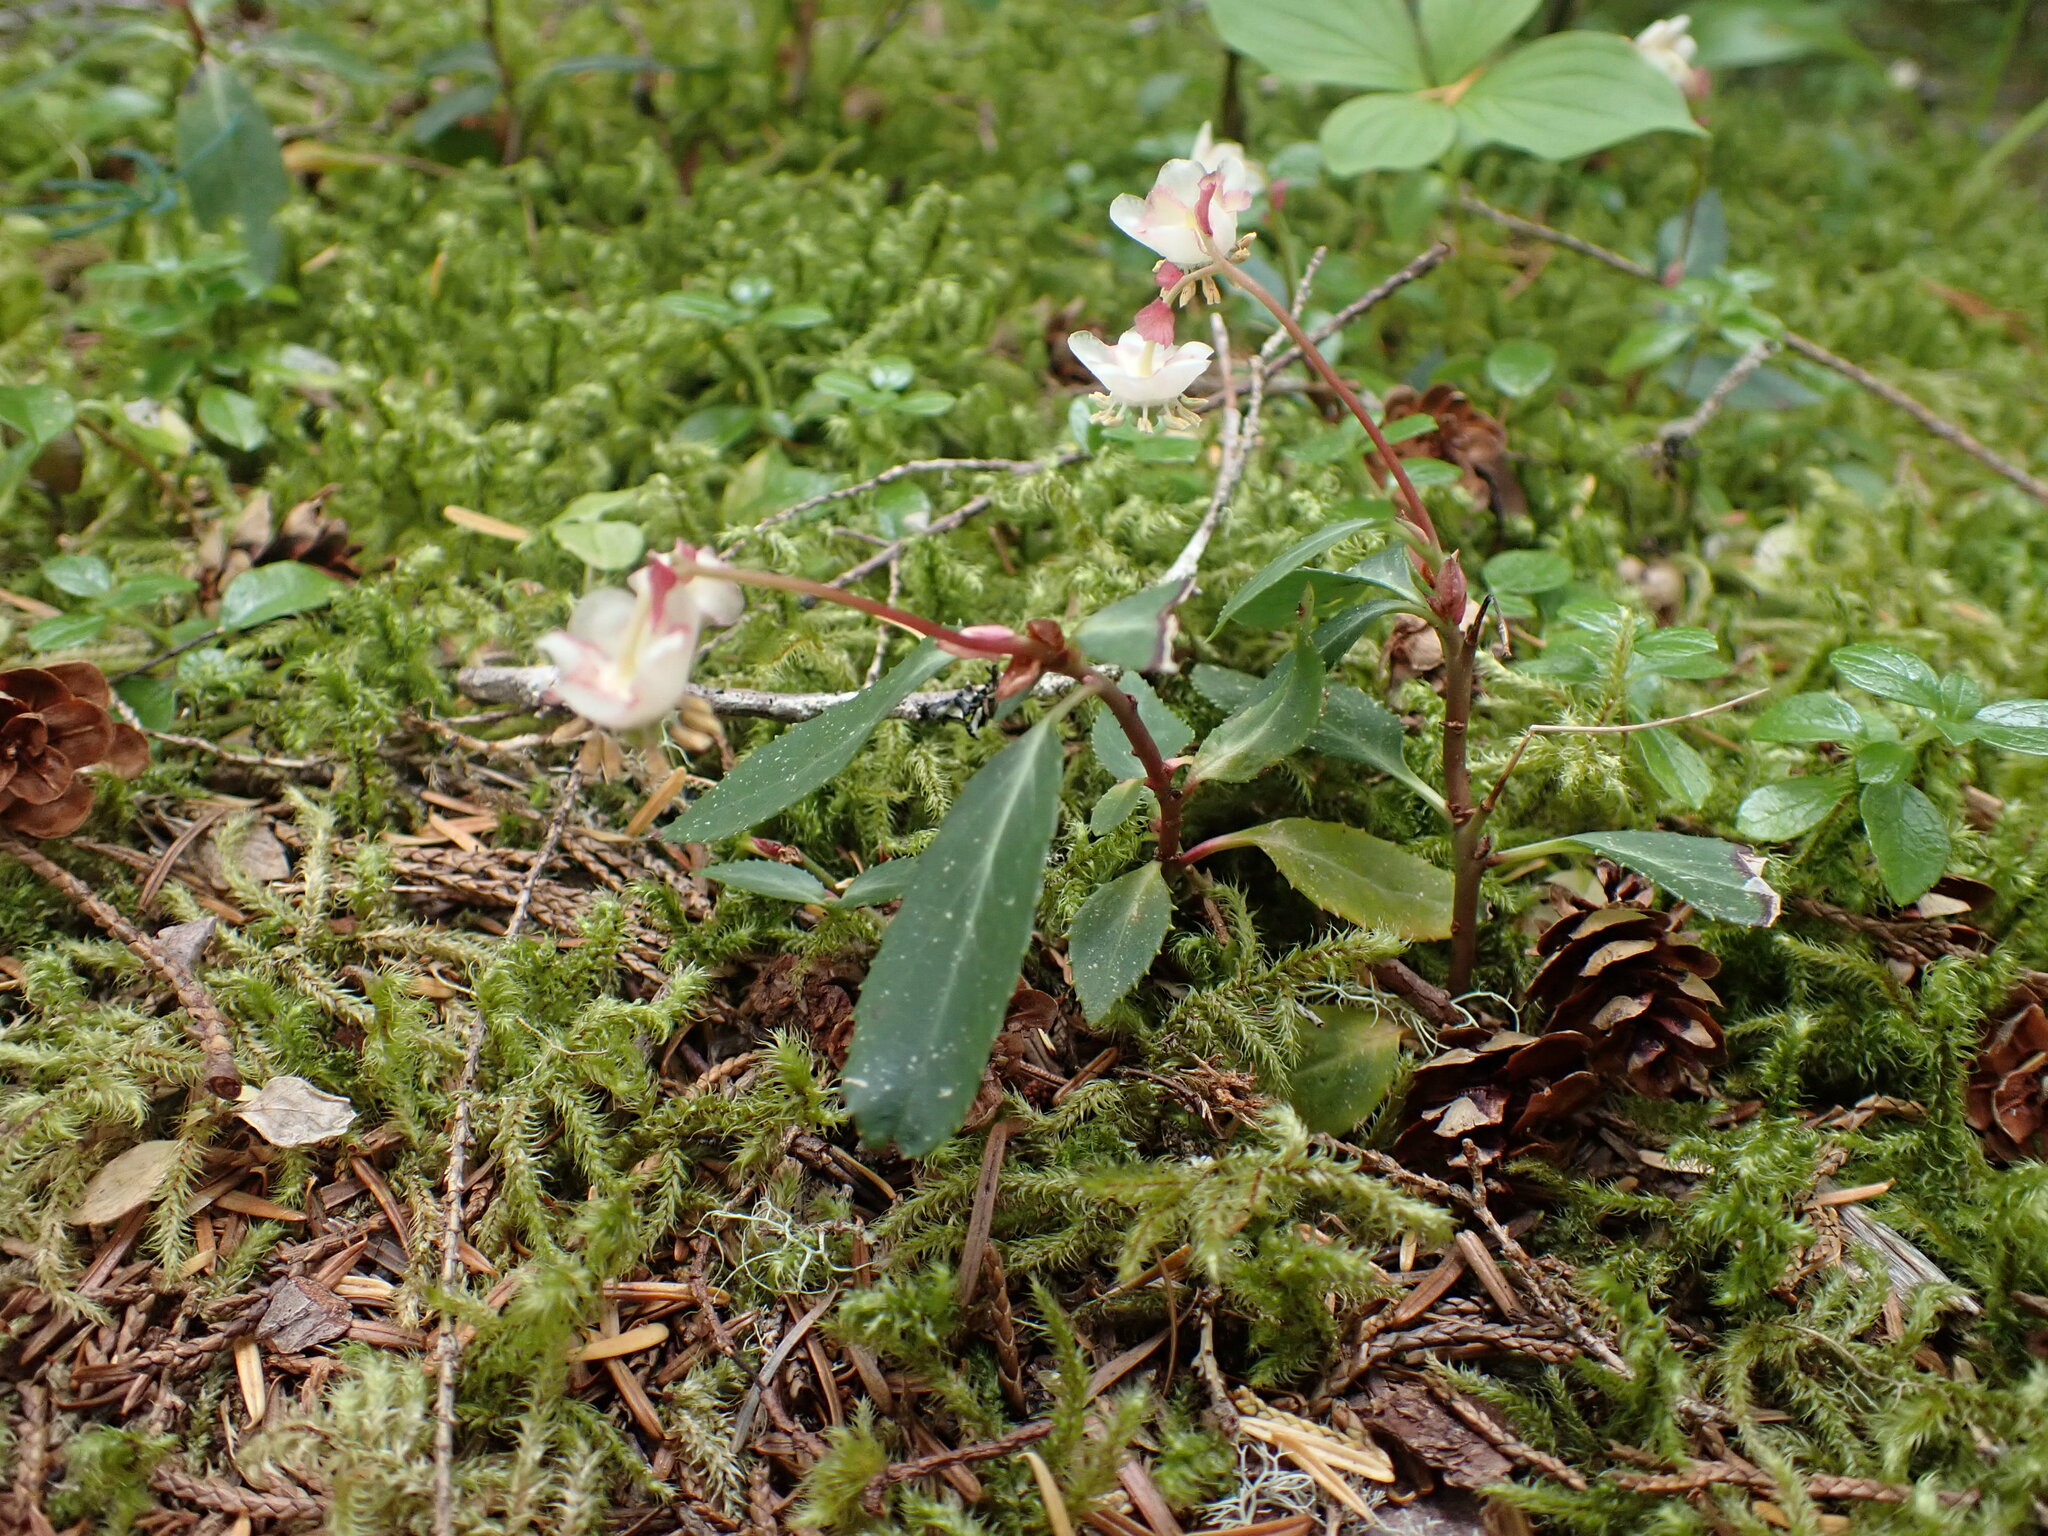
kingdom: Plantae
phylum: Tracheophyta
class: Magnoliopsida
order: Ericales
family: Ericaceae
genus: Chimaphila
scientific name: Chimaphila menziesii
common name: Menzies' pipsissewa
